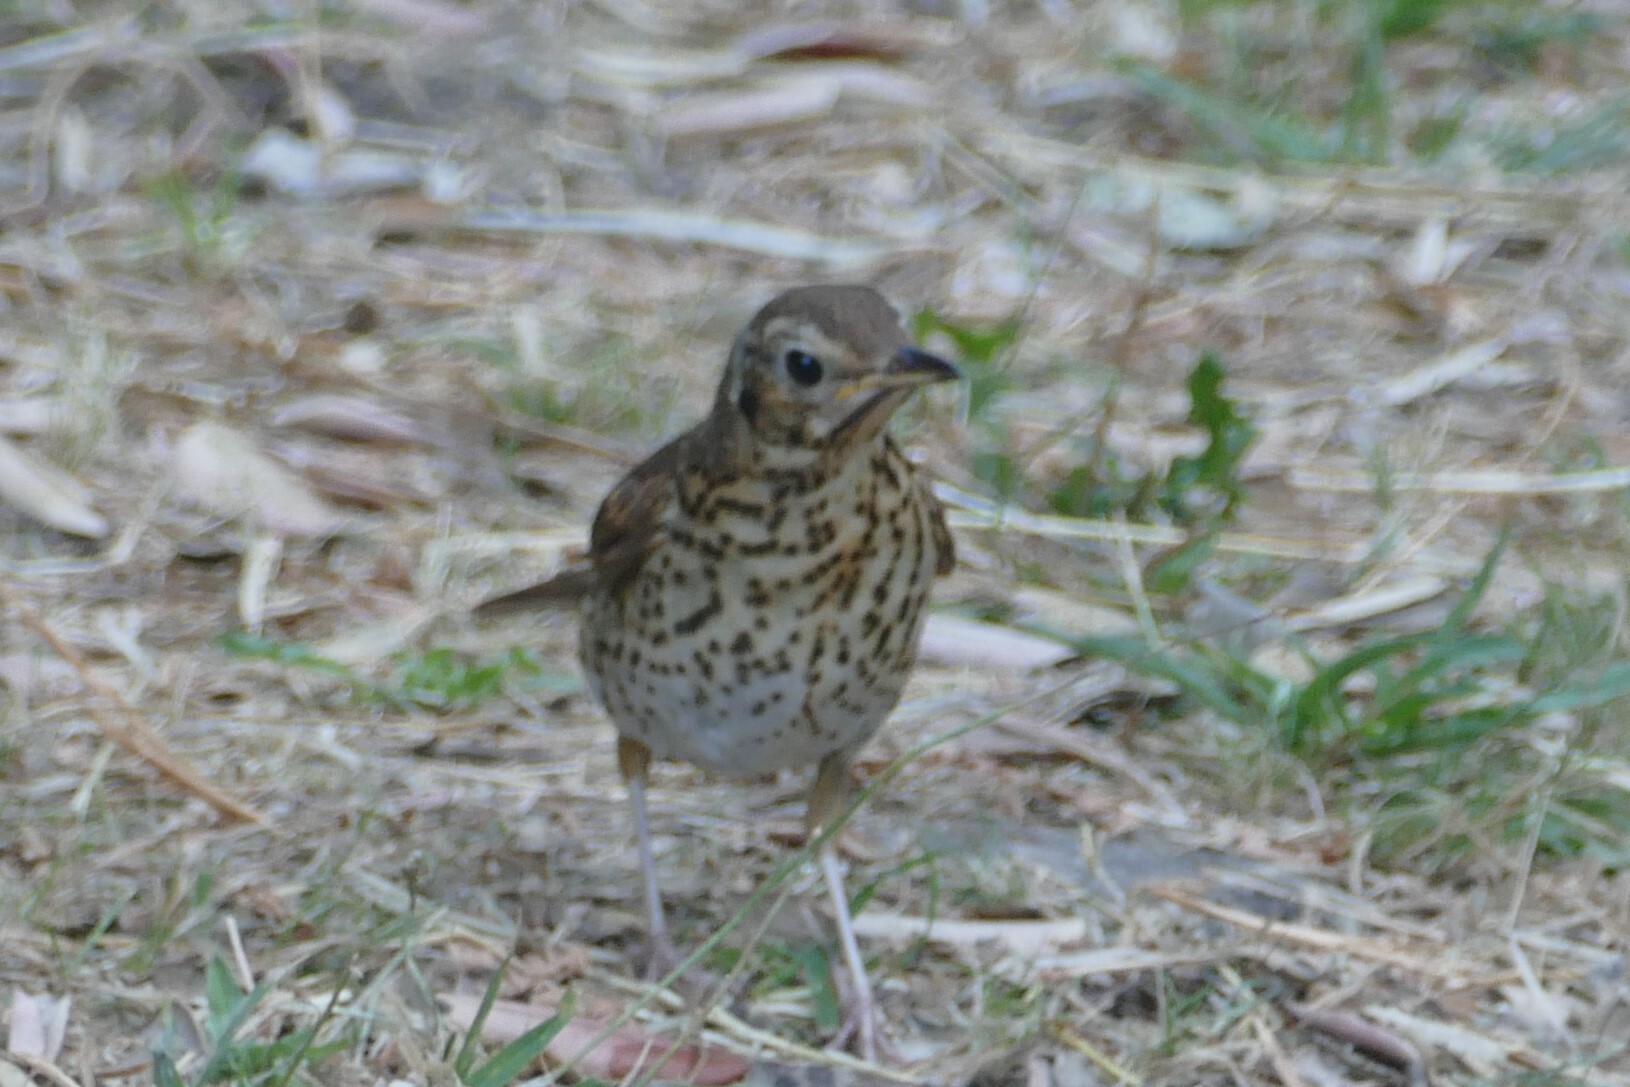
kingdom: Animalia
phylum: Chordata
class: Aves
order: Passeriformes
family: Turdidae
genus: Turdus
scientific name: Turdus philomelos
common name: Song thrush
